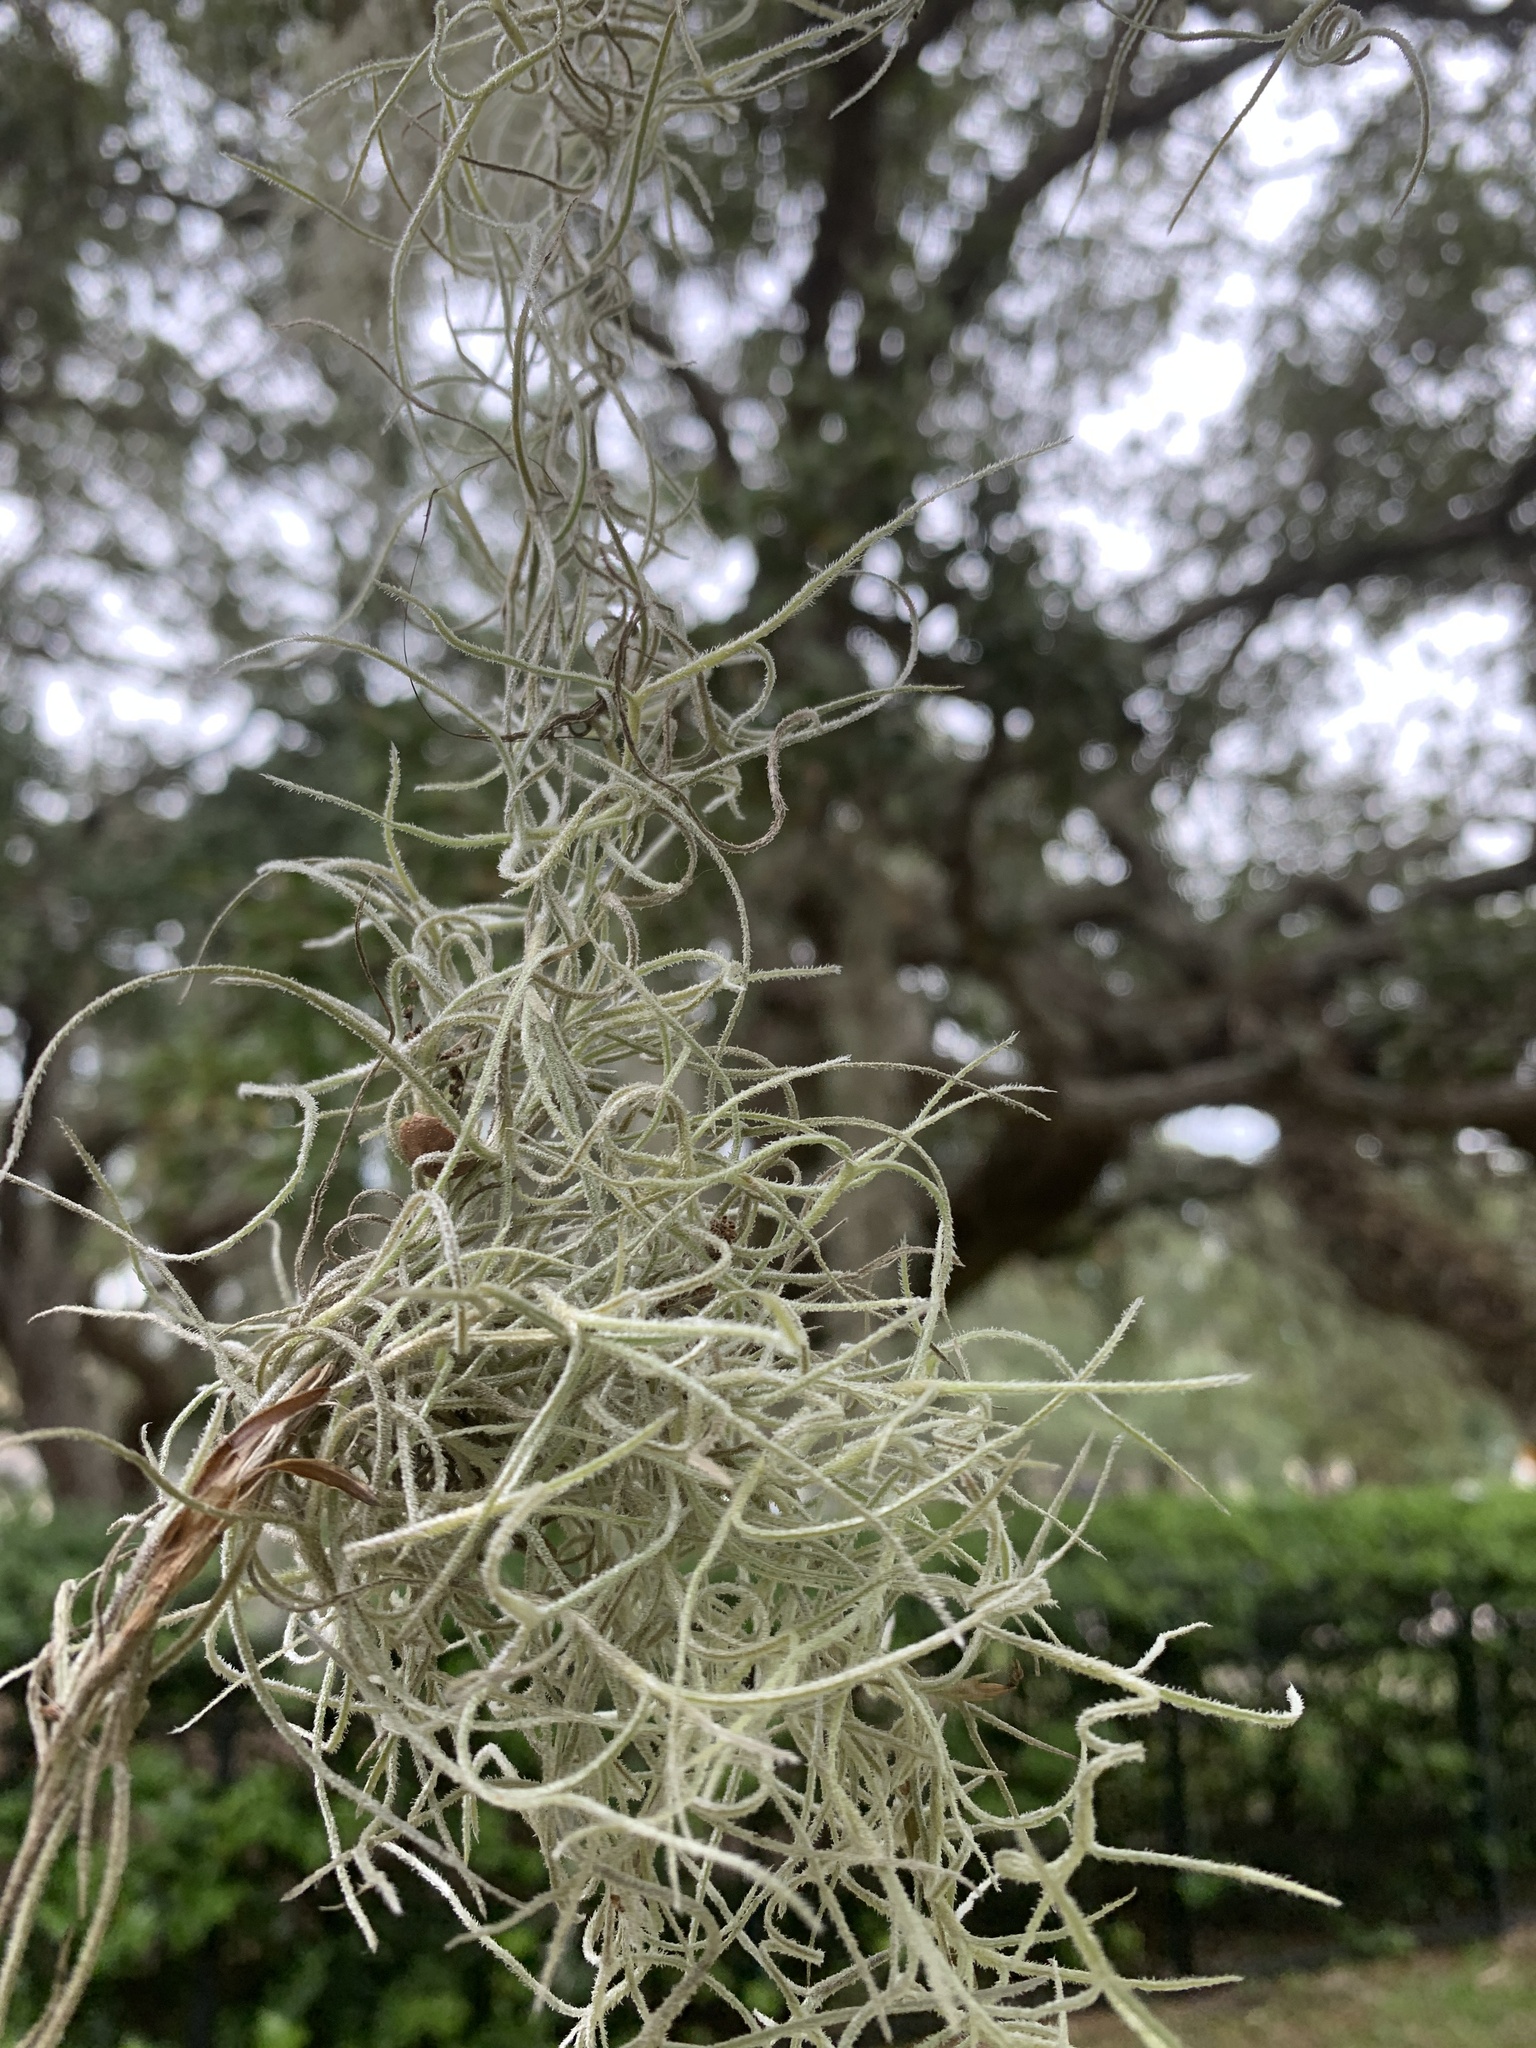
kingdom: Plantae
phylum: Tracheophyta
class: Liliopsida
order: Poales
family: Bromeliaceae
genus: Tillandsia
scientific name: Tillandsia usneoides
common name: Spanish moss
